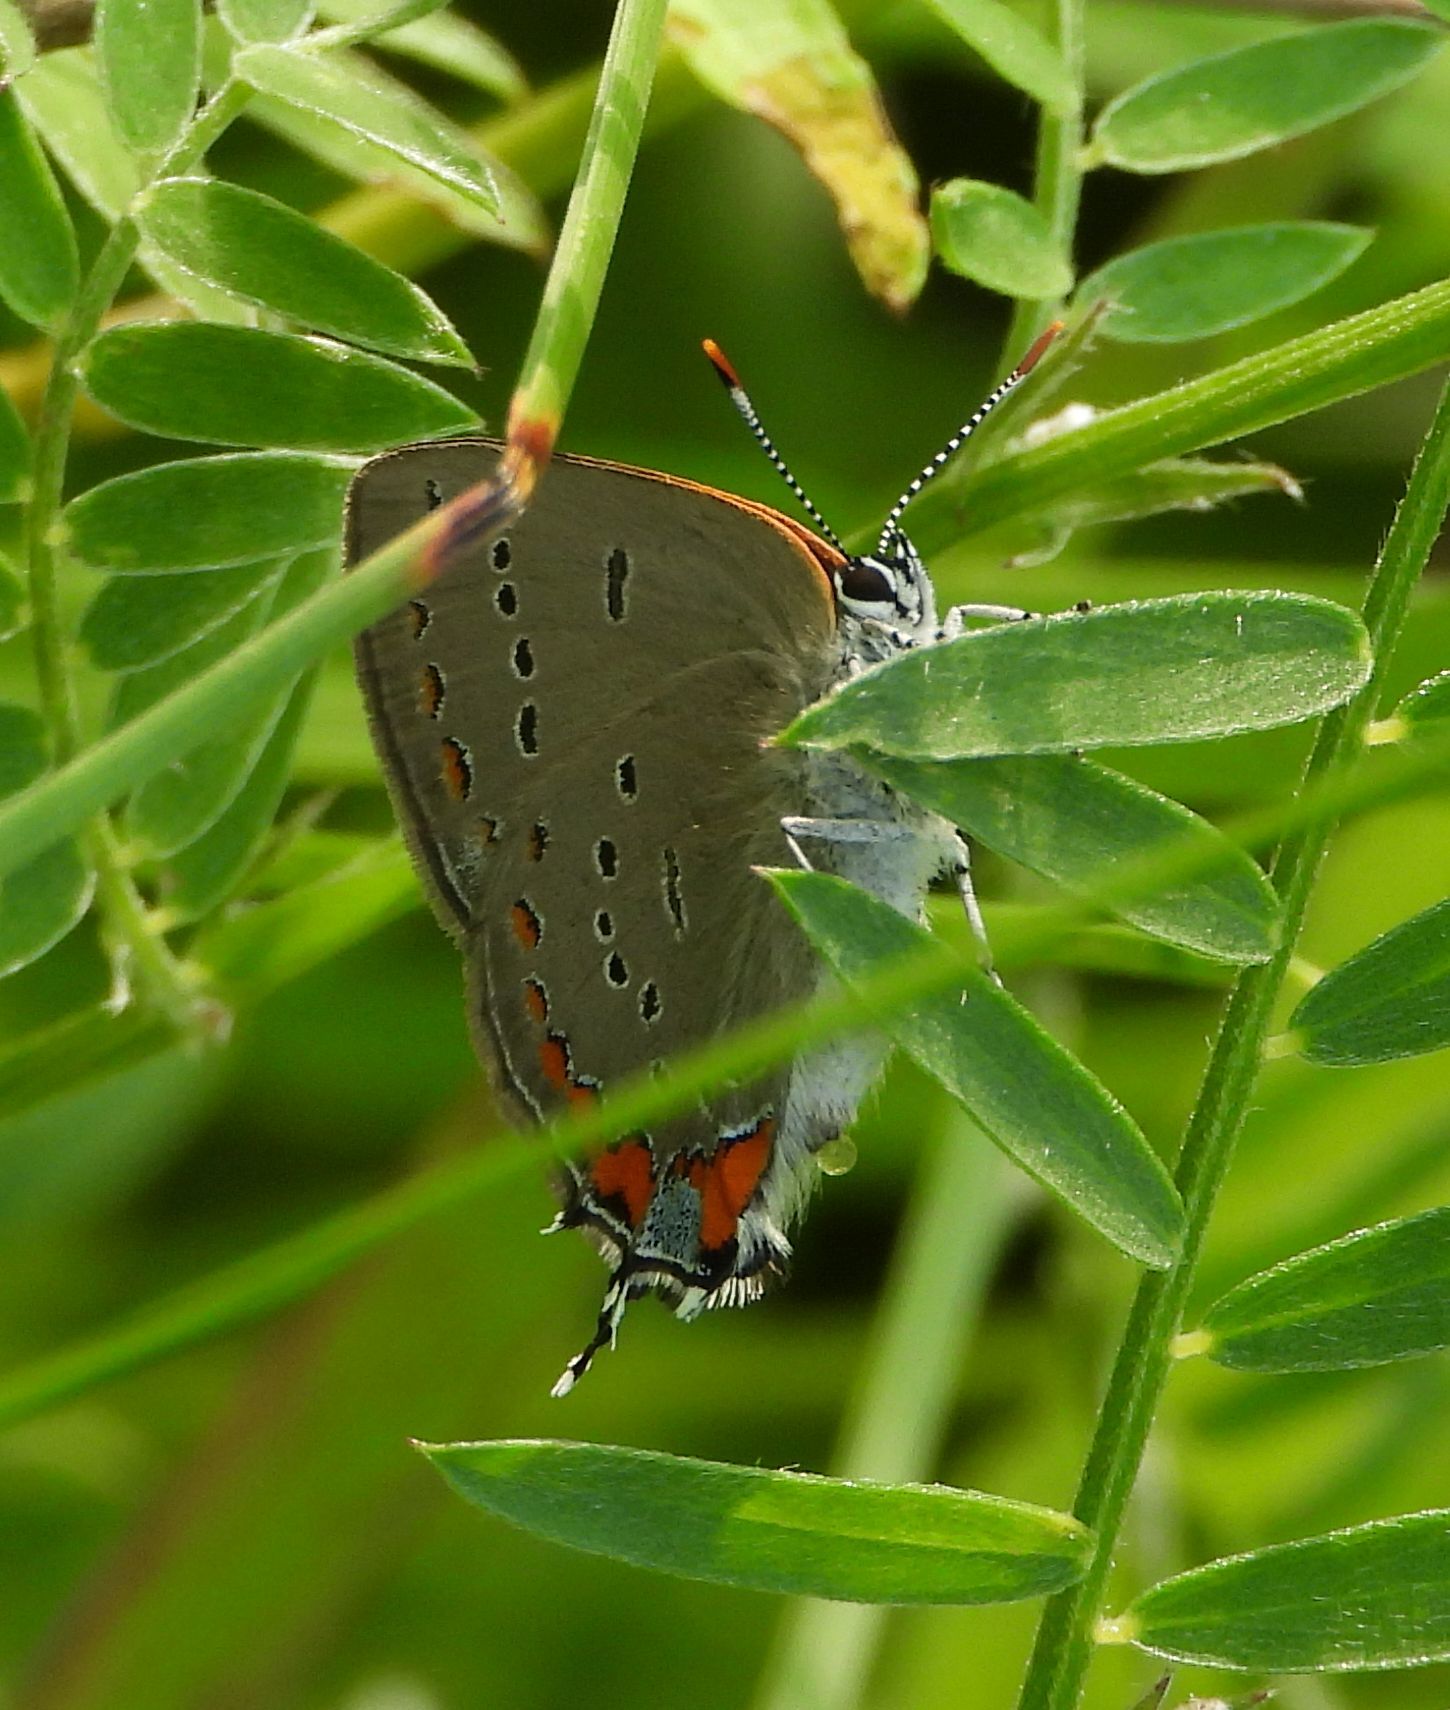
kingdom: Animalia
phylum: Arthropoda
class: Insecta
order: Lepidoptera
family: Lycaenidae
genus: Strymon
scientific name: Strymon acadica
